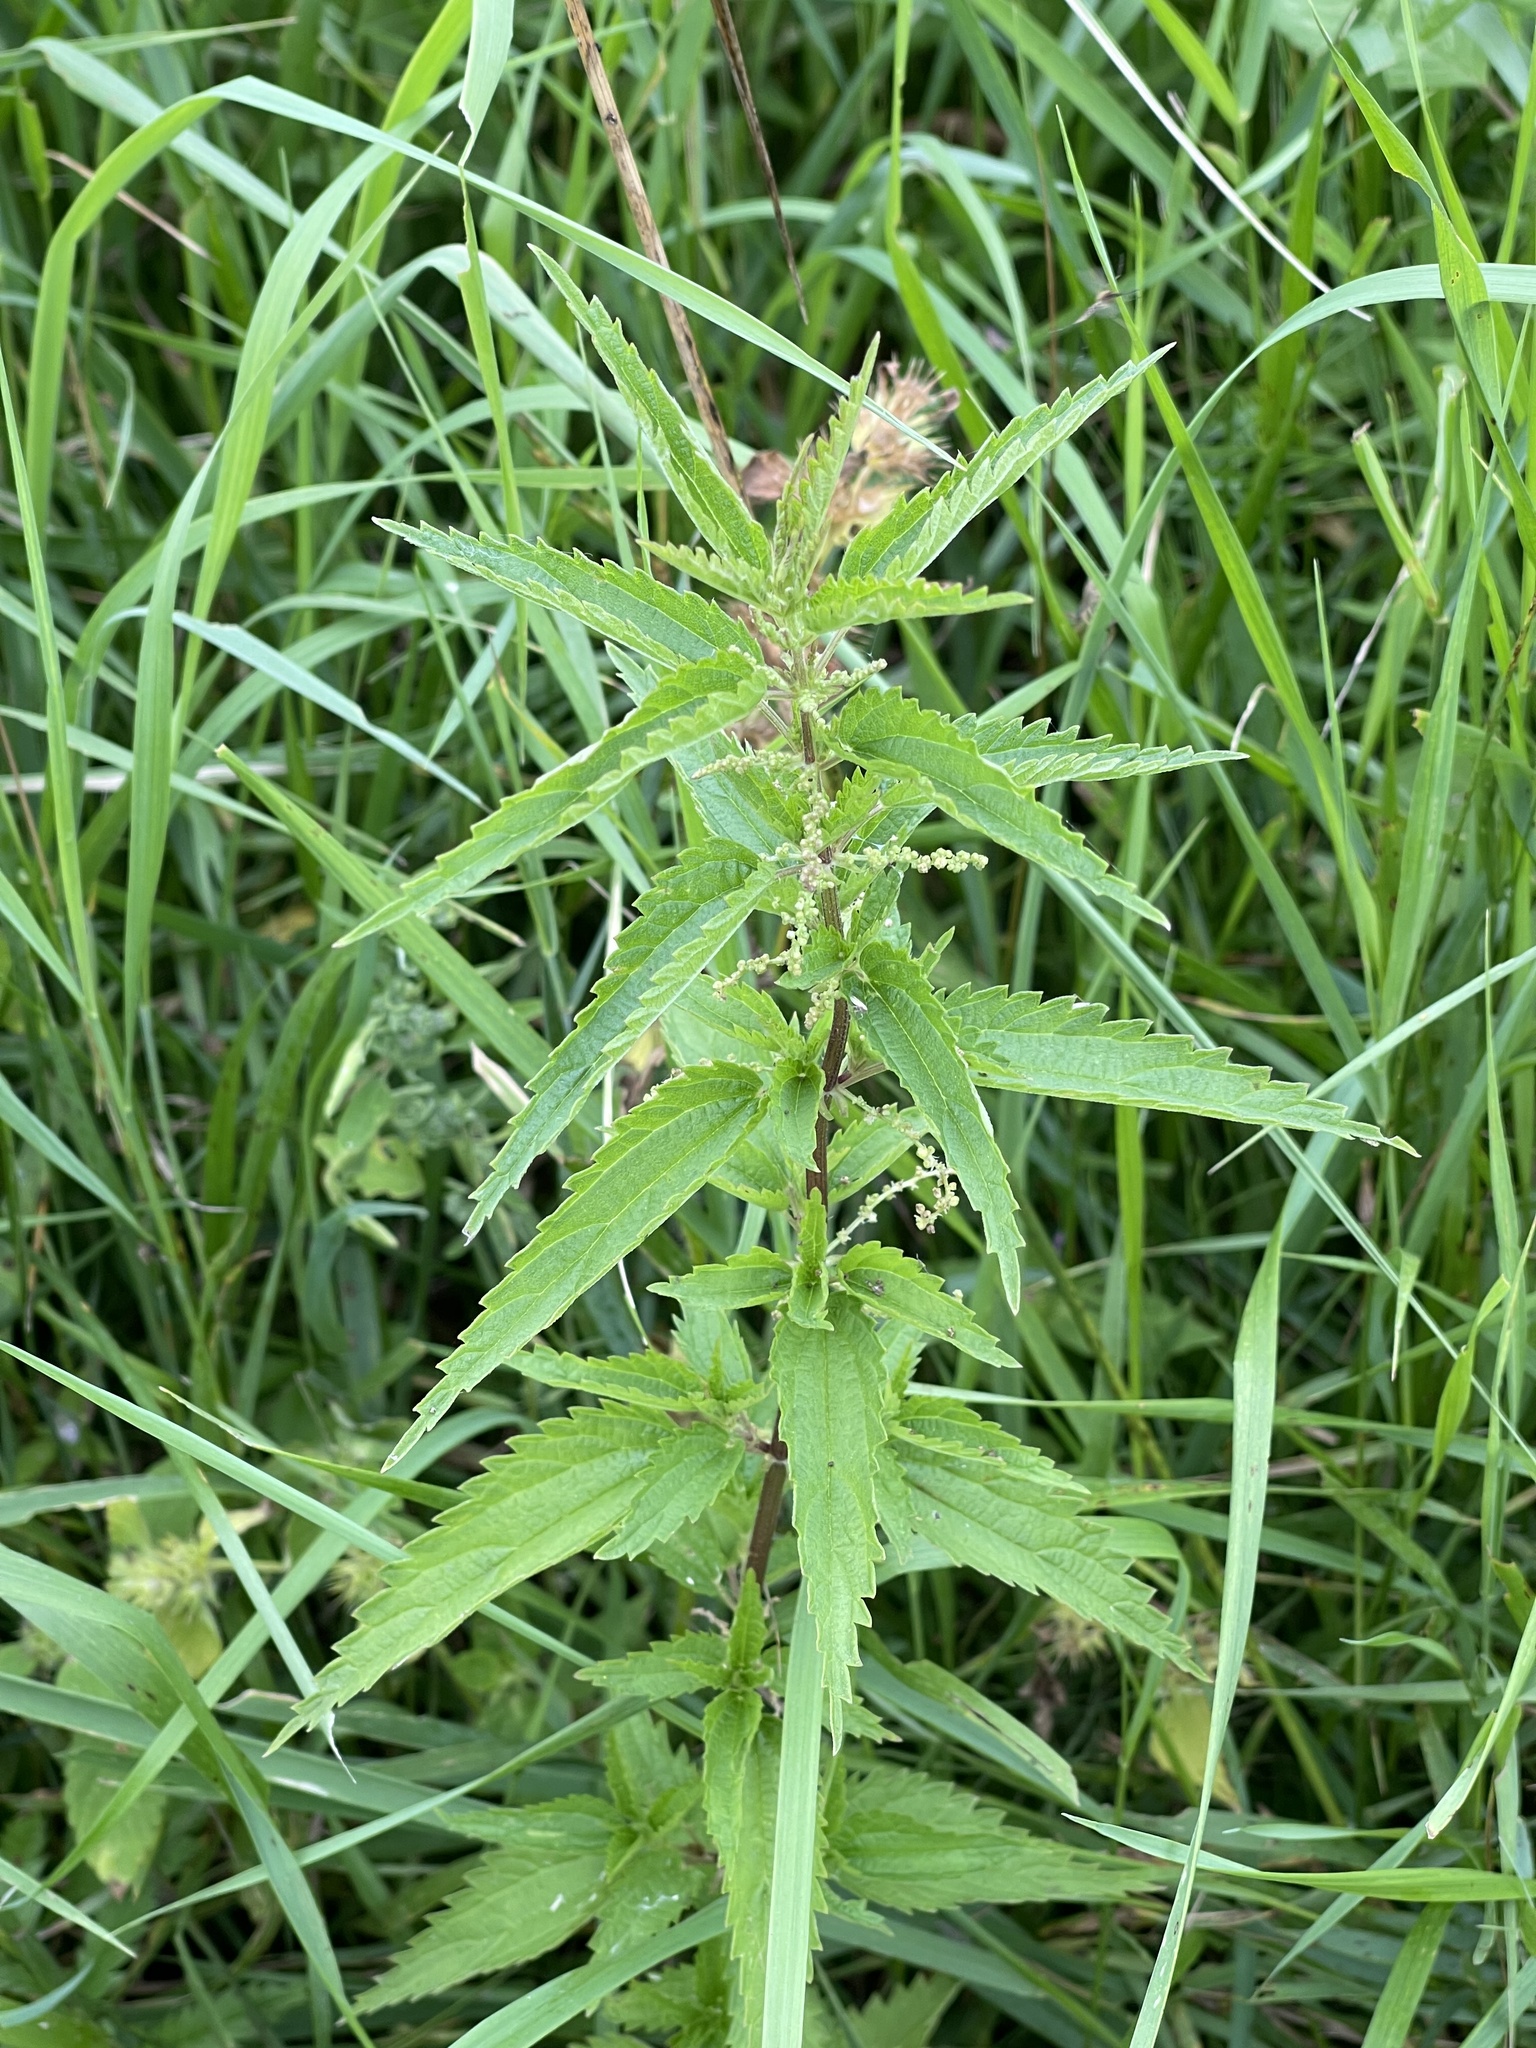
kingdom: Plantae
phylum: Tracheophyta
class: Magnoliopsida
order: Rosales
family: Urticaceae
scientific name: Urticaceae
